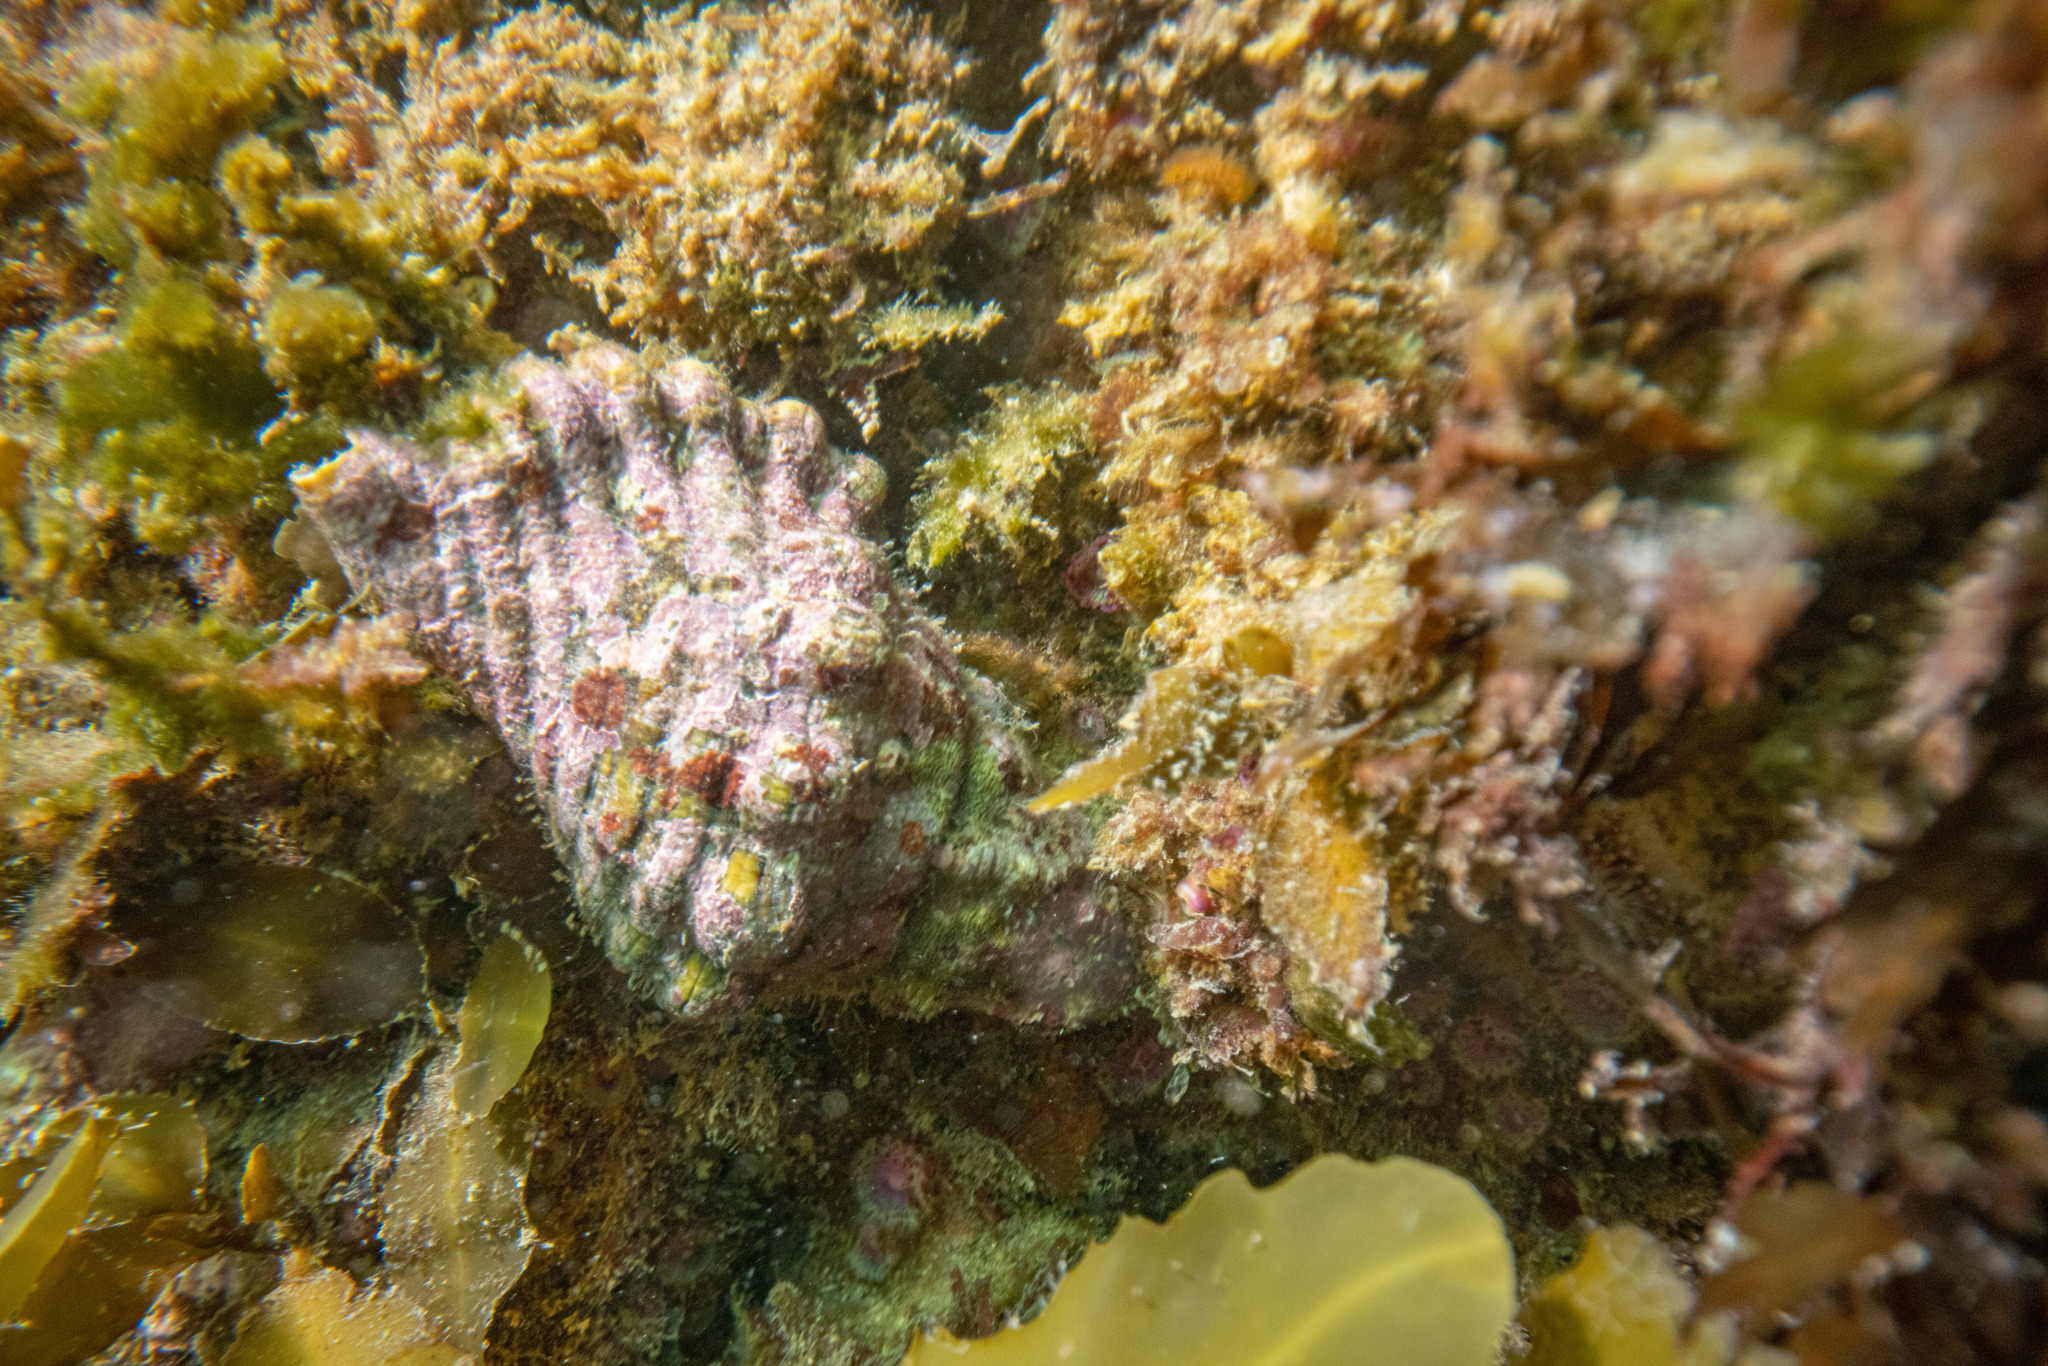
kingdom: Animalia
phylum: Mollusca
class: Gastropoda
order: Littorinimorpha
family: Cymatiidae
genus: Cabestana
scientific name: Cabestana spengleri
